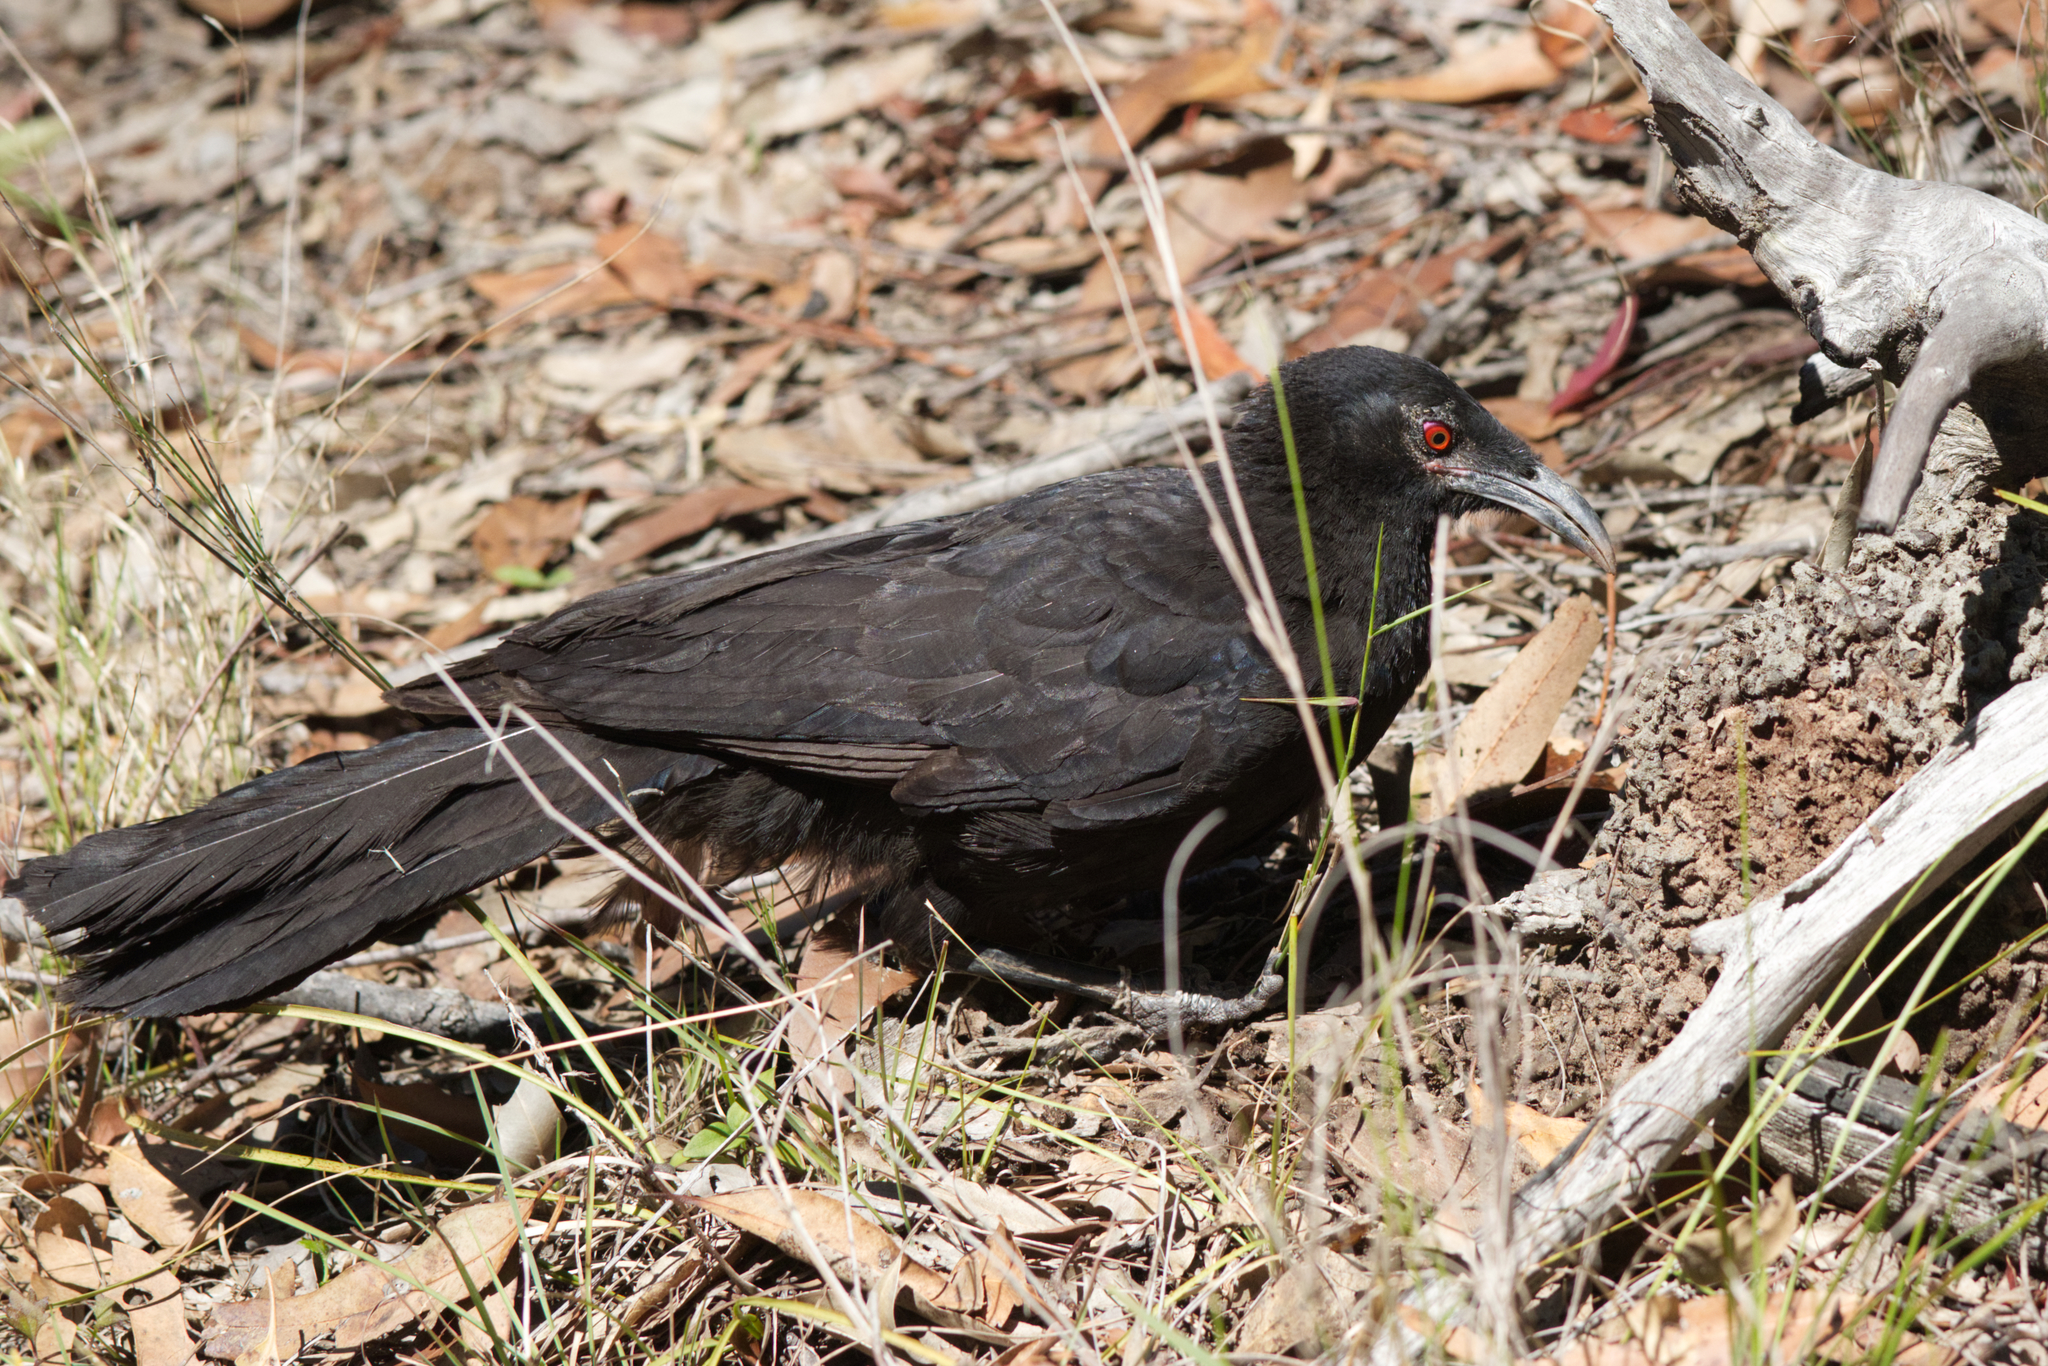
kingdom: Animalia
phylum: Chordata
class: Aves
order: Passeriformes
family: Corcoracidae
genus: Corcorax
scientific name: Corcorax melanoramphos
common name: White-winged chough
